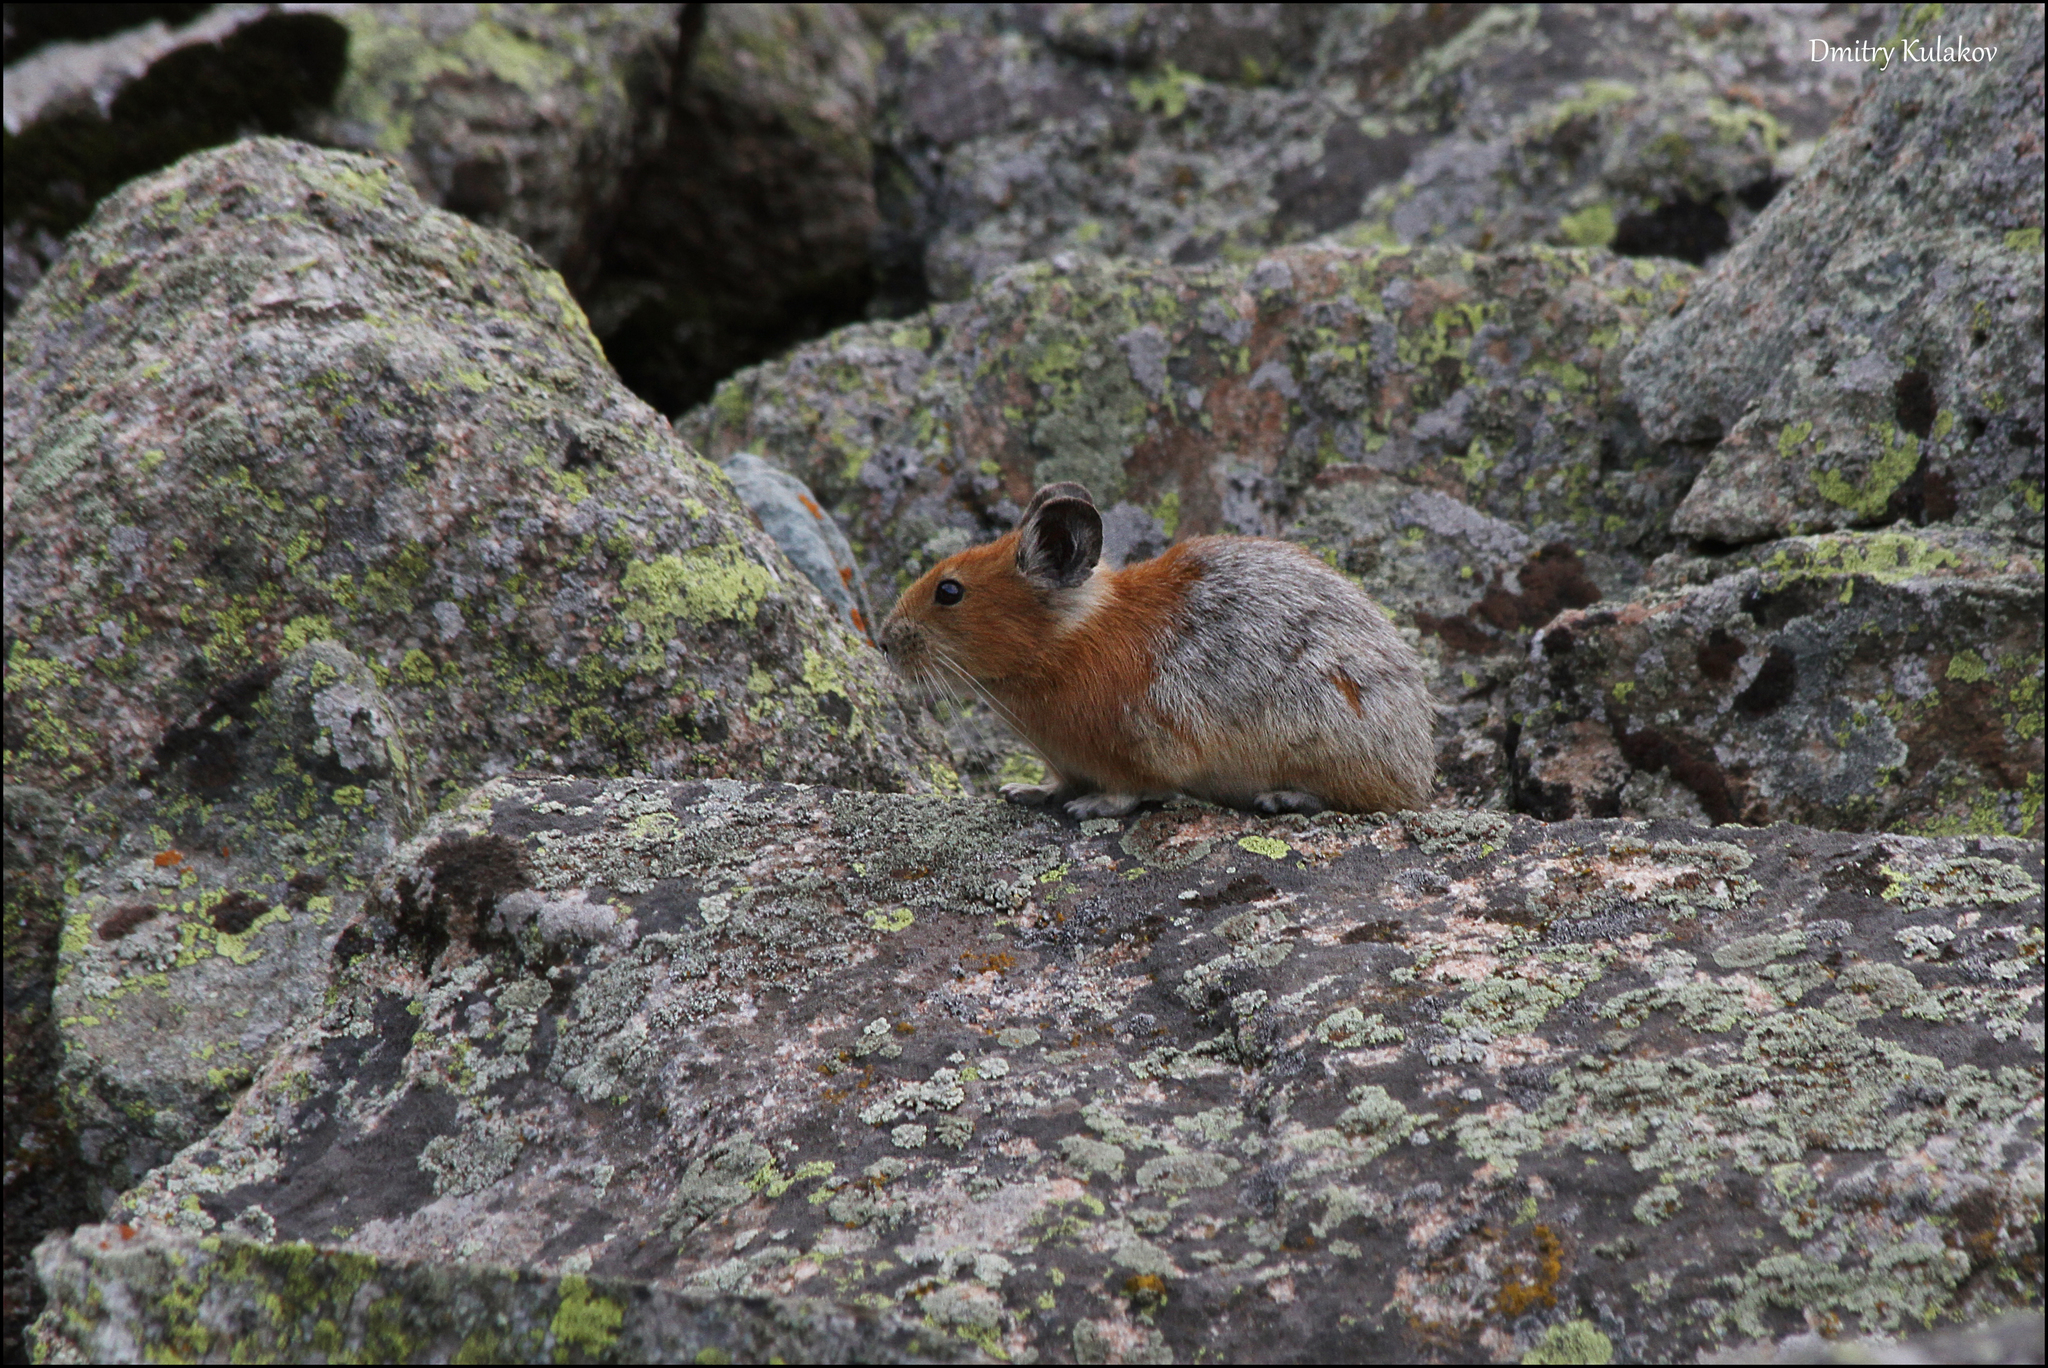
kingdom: Animalia
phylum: Chordata
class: Mammalia
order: Lagomorpha
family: Ochotonidae
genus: Ochotona
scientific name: Ochotona rutila
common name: Turkestan red pika
